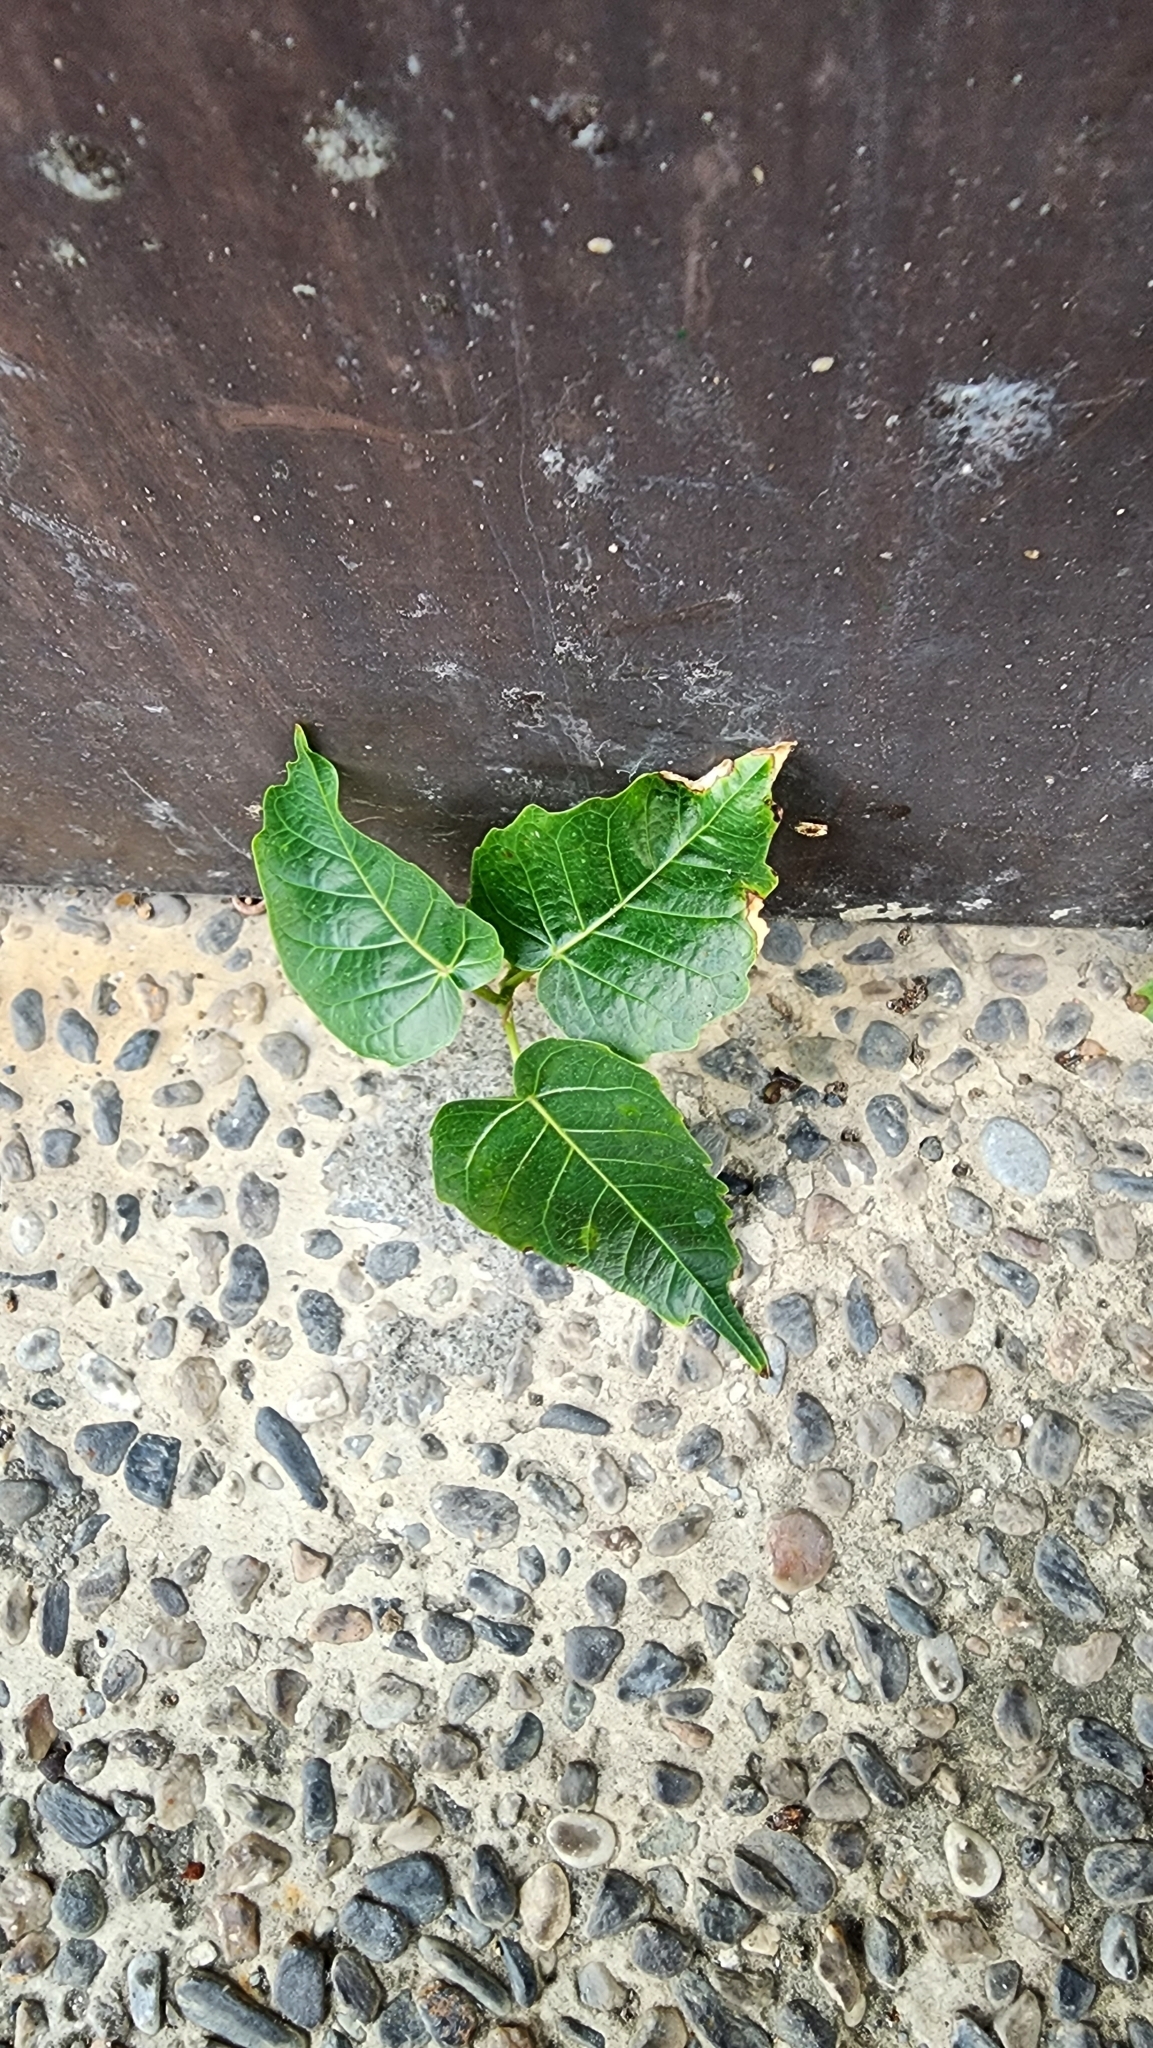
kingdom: Plantae
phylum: Tracheophyta
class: Magnoliopsida
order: Rosales
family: Moraceae
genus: Ficus
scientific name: Ficus religiosa
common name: Bodhi tree
